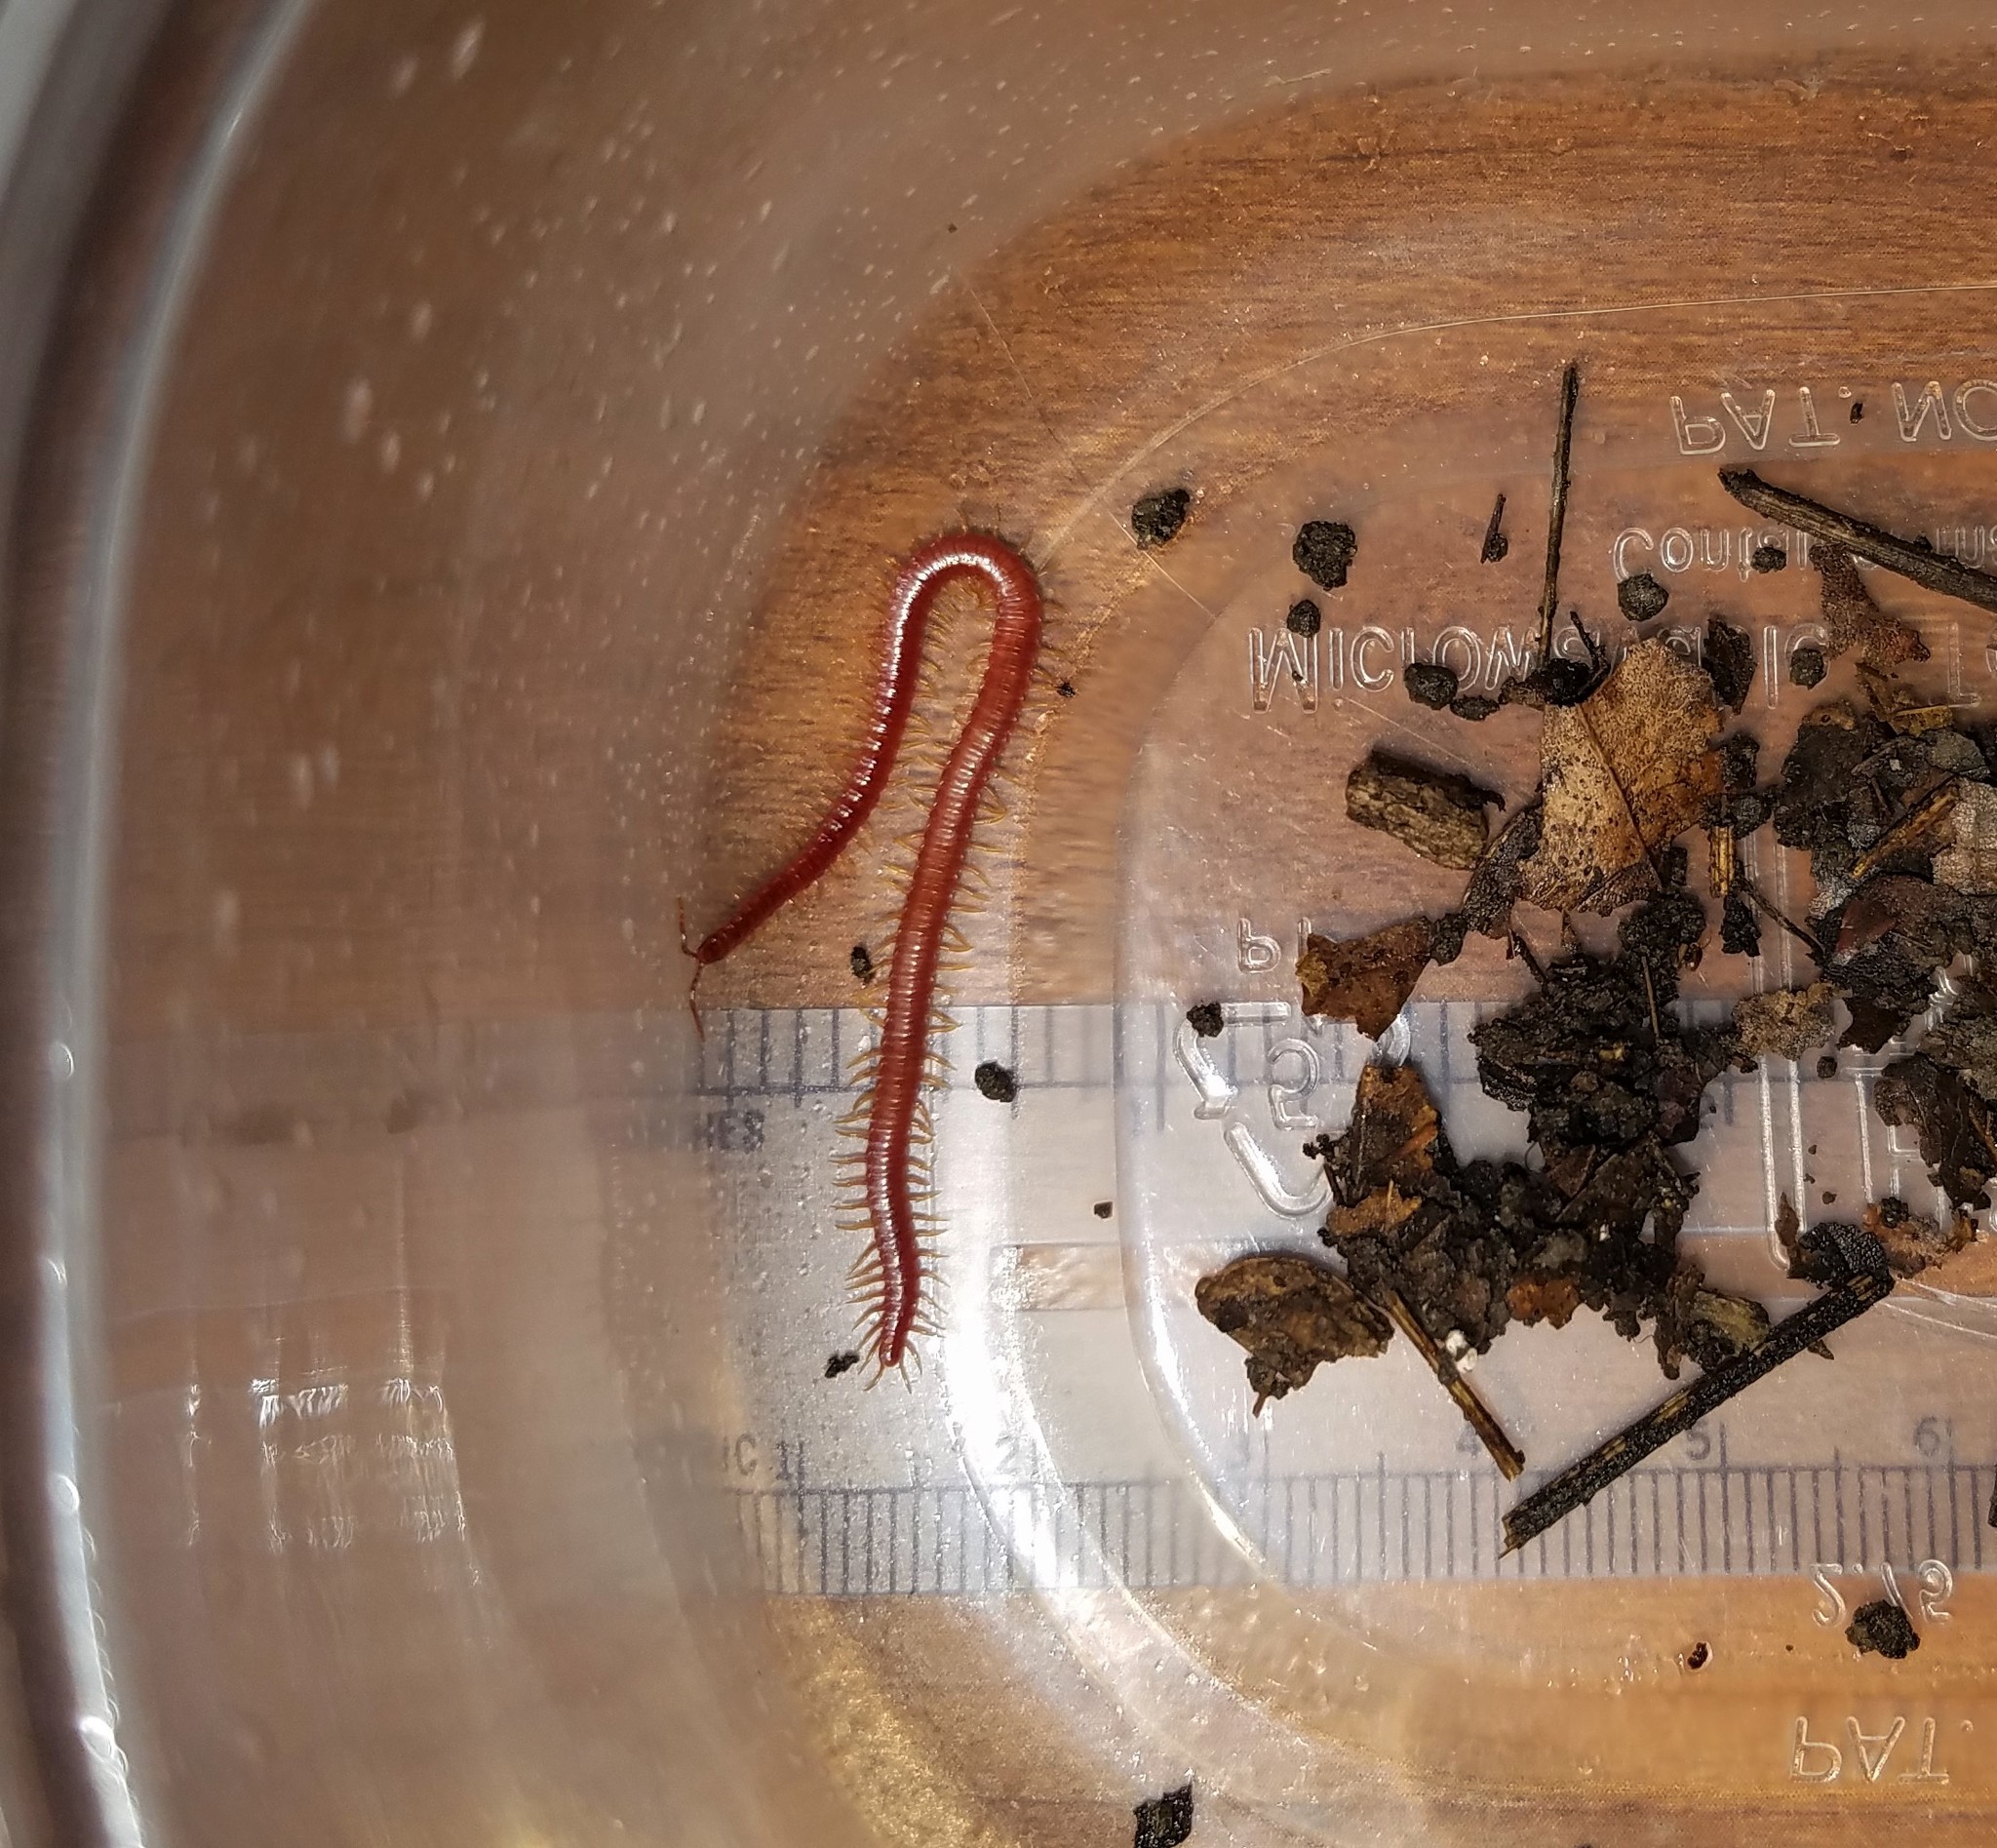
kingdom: Animalia
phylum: Arthropoda
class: Chilopoda
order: Geophilomorpha
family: Linotaeniidae
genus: Strigamia
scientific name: Strigamia bidens
